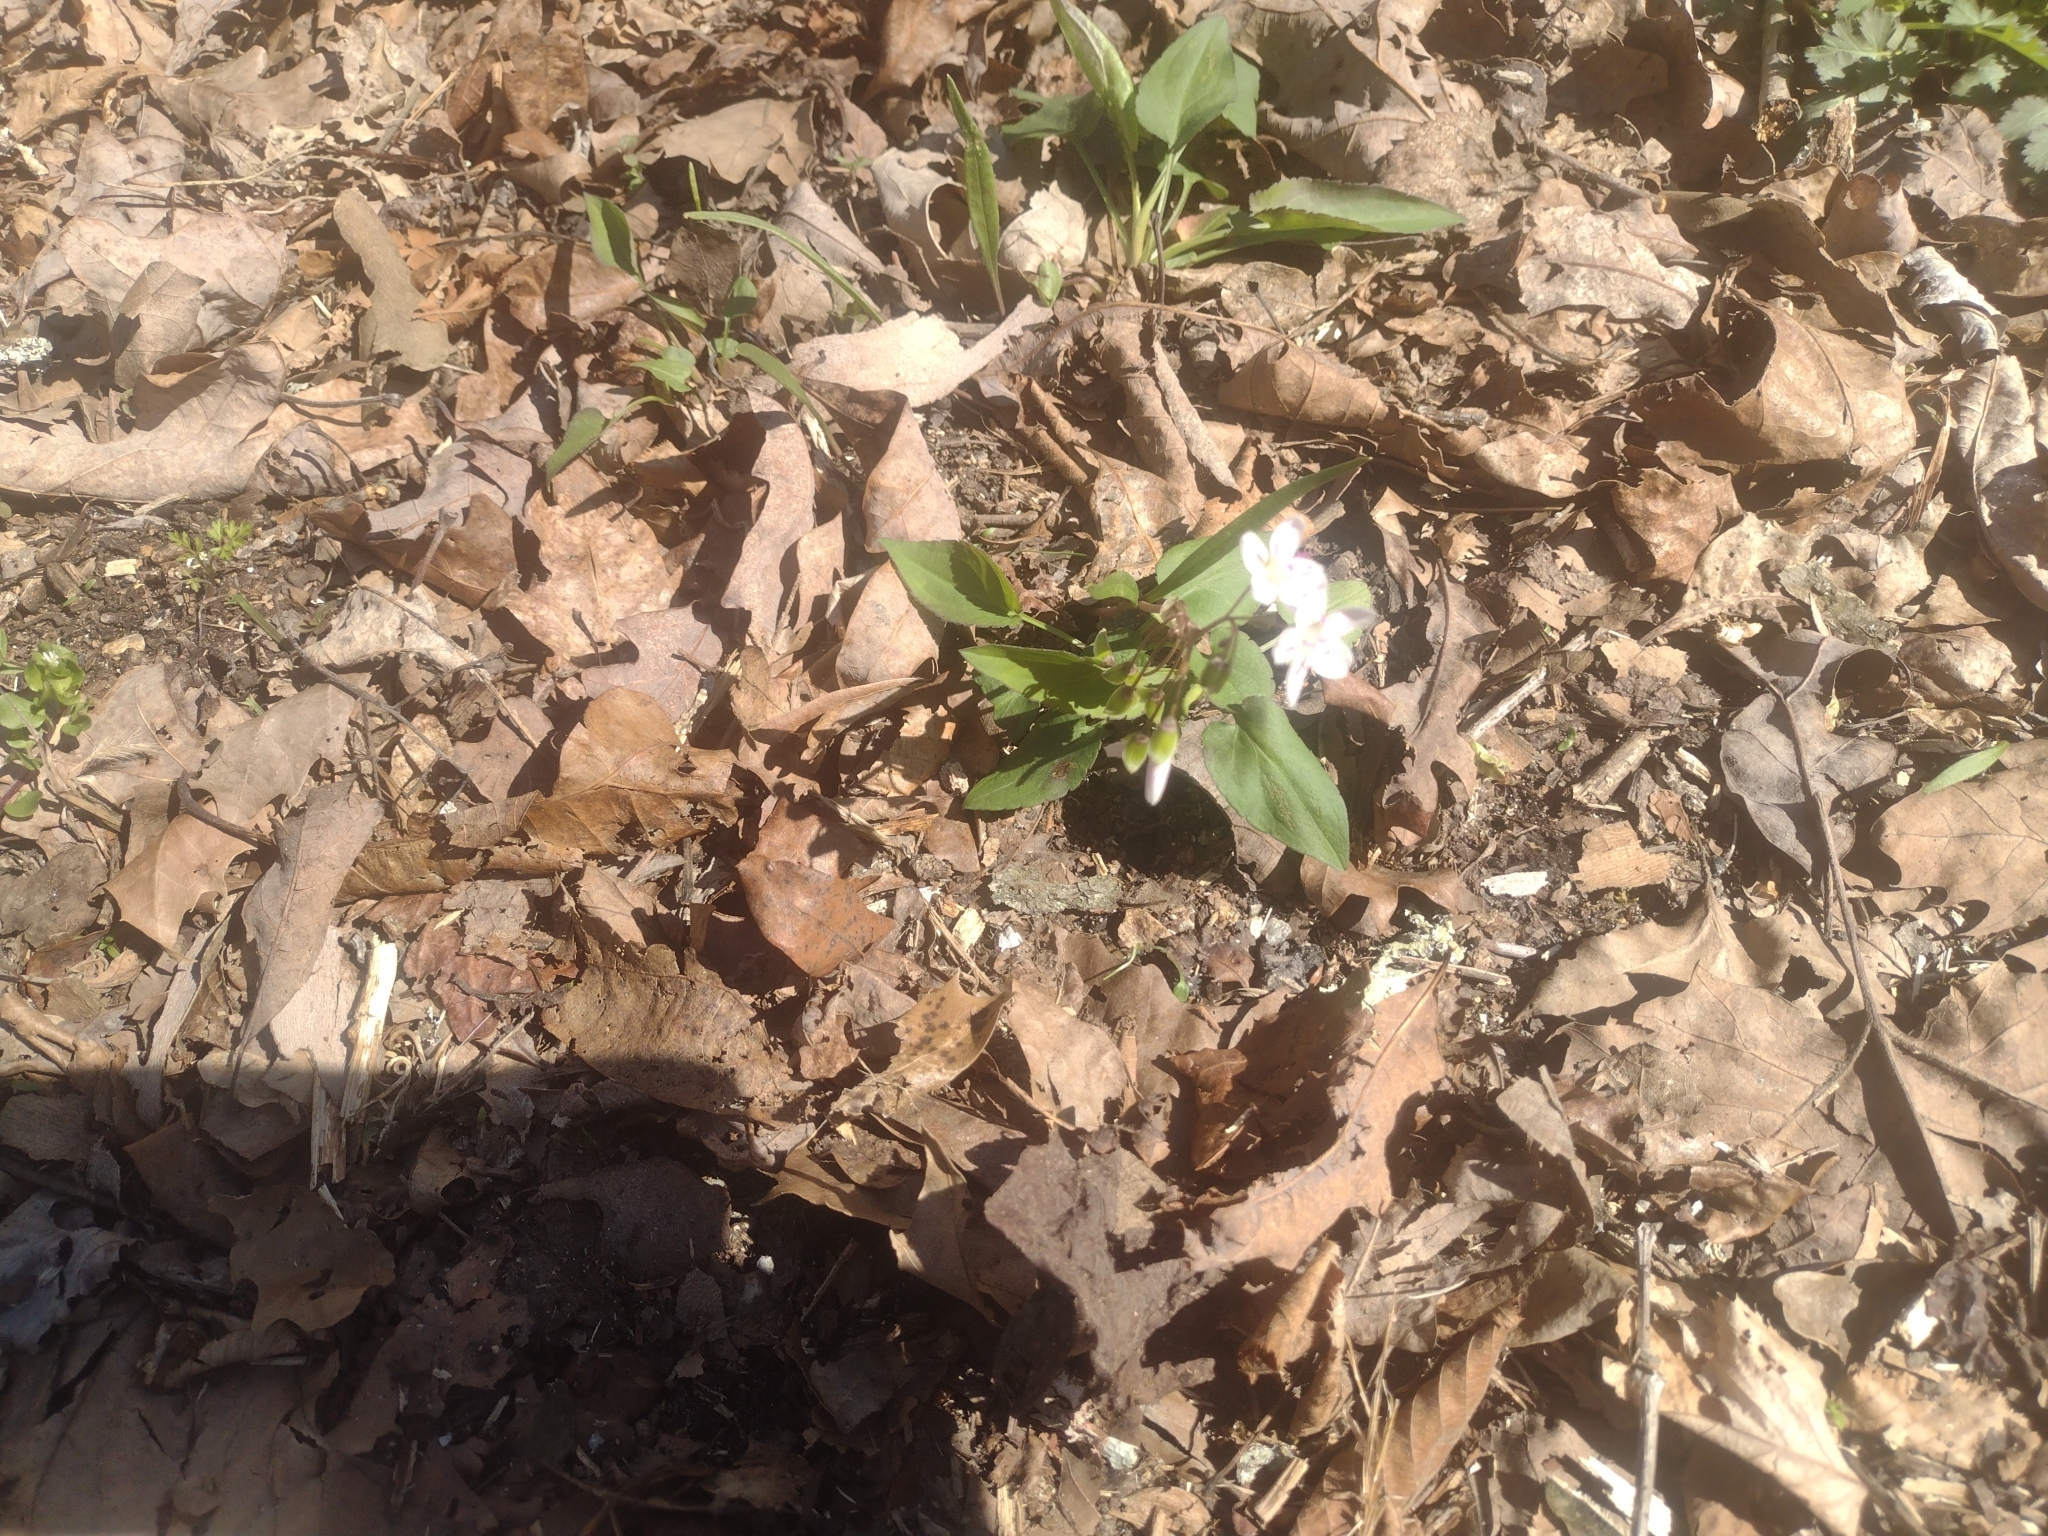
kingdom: Plantae
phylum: Tracheophyta
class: Magnoliopsida
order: Caryophyllales
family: Montiaceae
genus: Claytonia
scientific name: Claytonia virginica
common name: Virginia springbeauty
